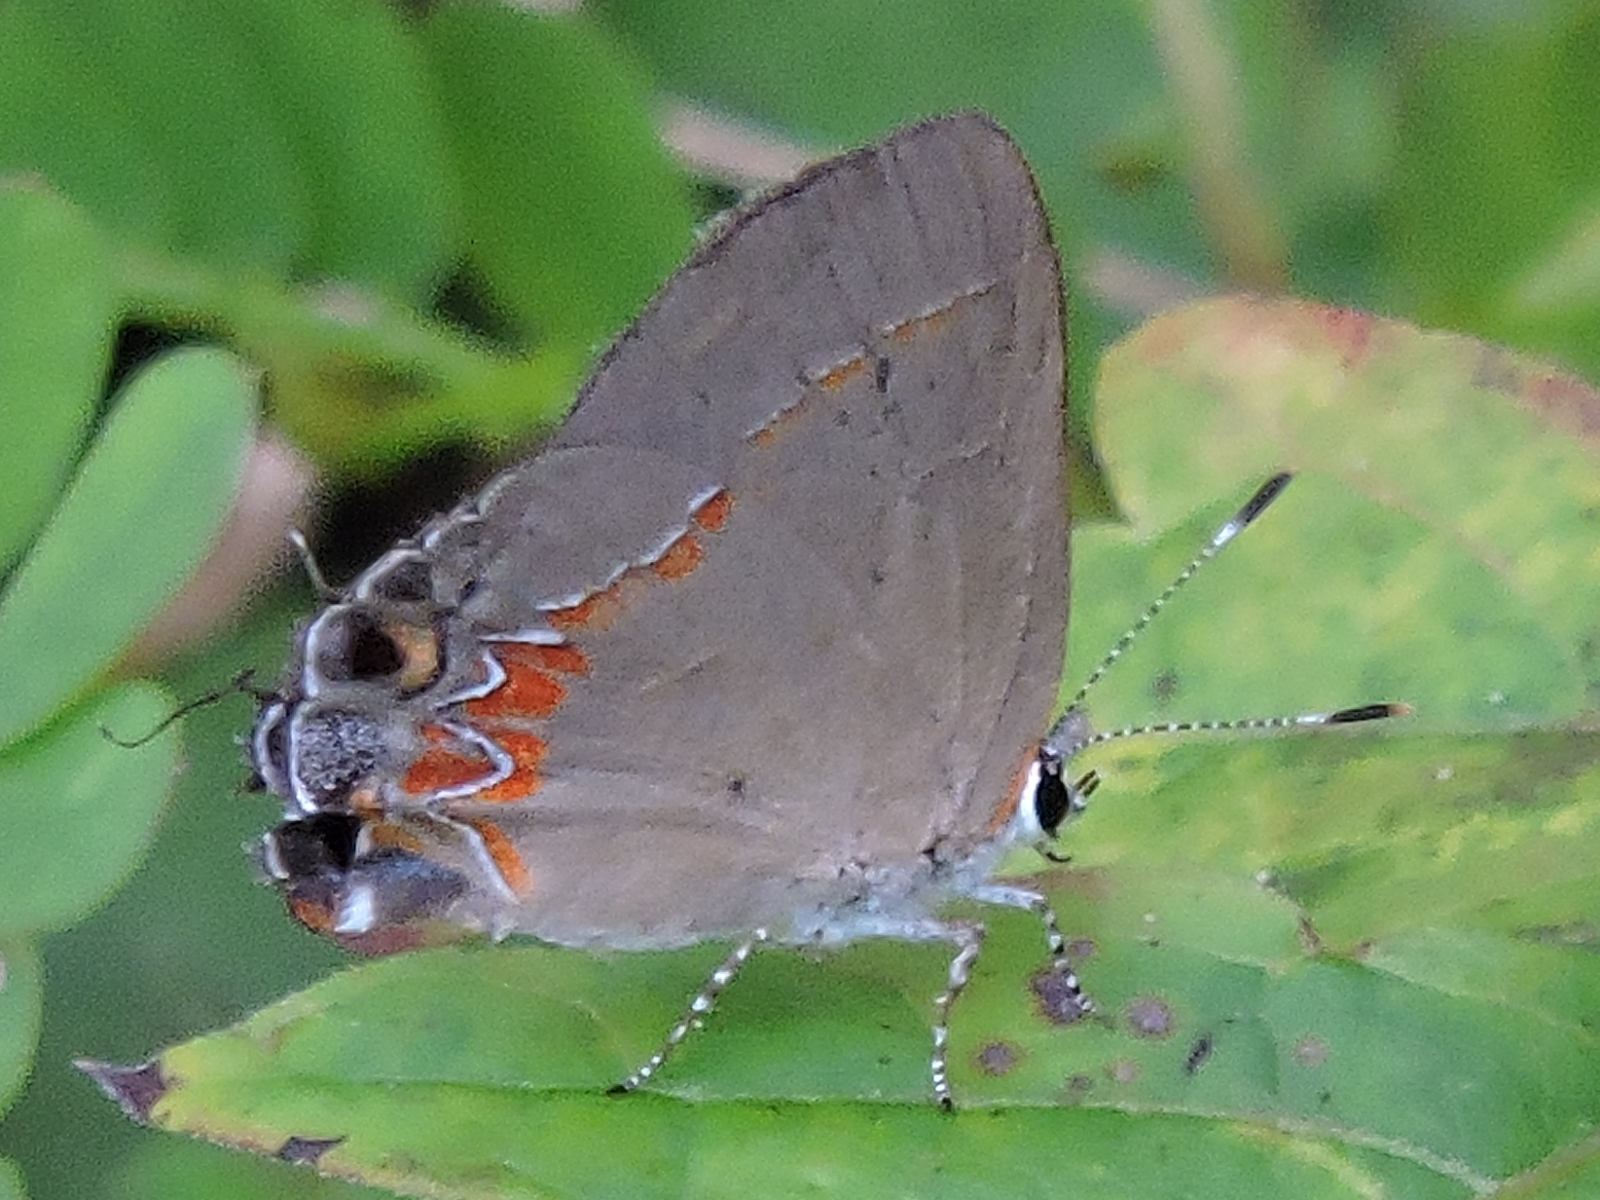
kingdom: Animalia
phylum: Arthropoda
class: Insecta
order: Lepidoptera
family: Lycaenidae
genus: Calycopis
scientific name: Calycopis isobeon
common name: Dusky-blue groundstreak
